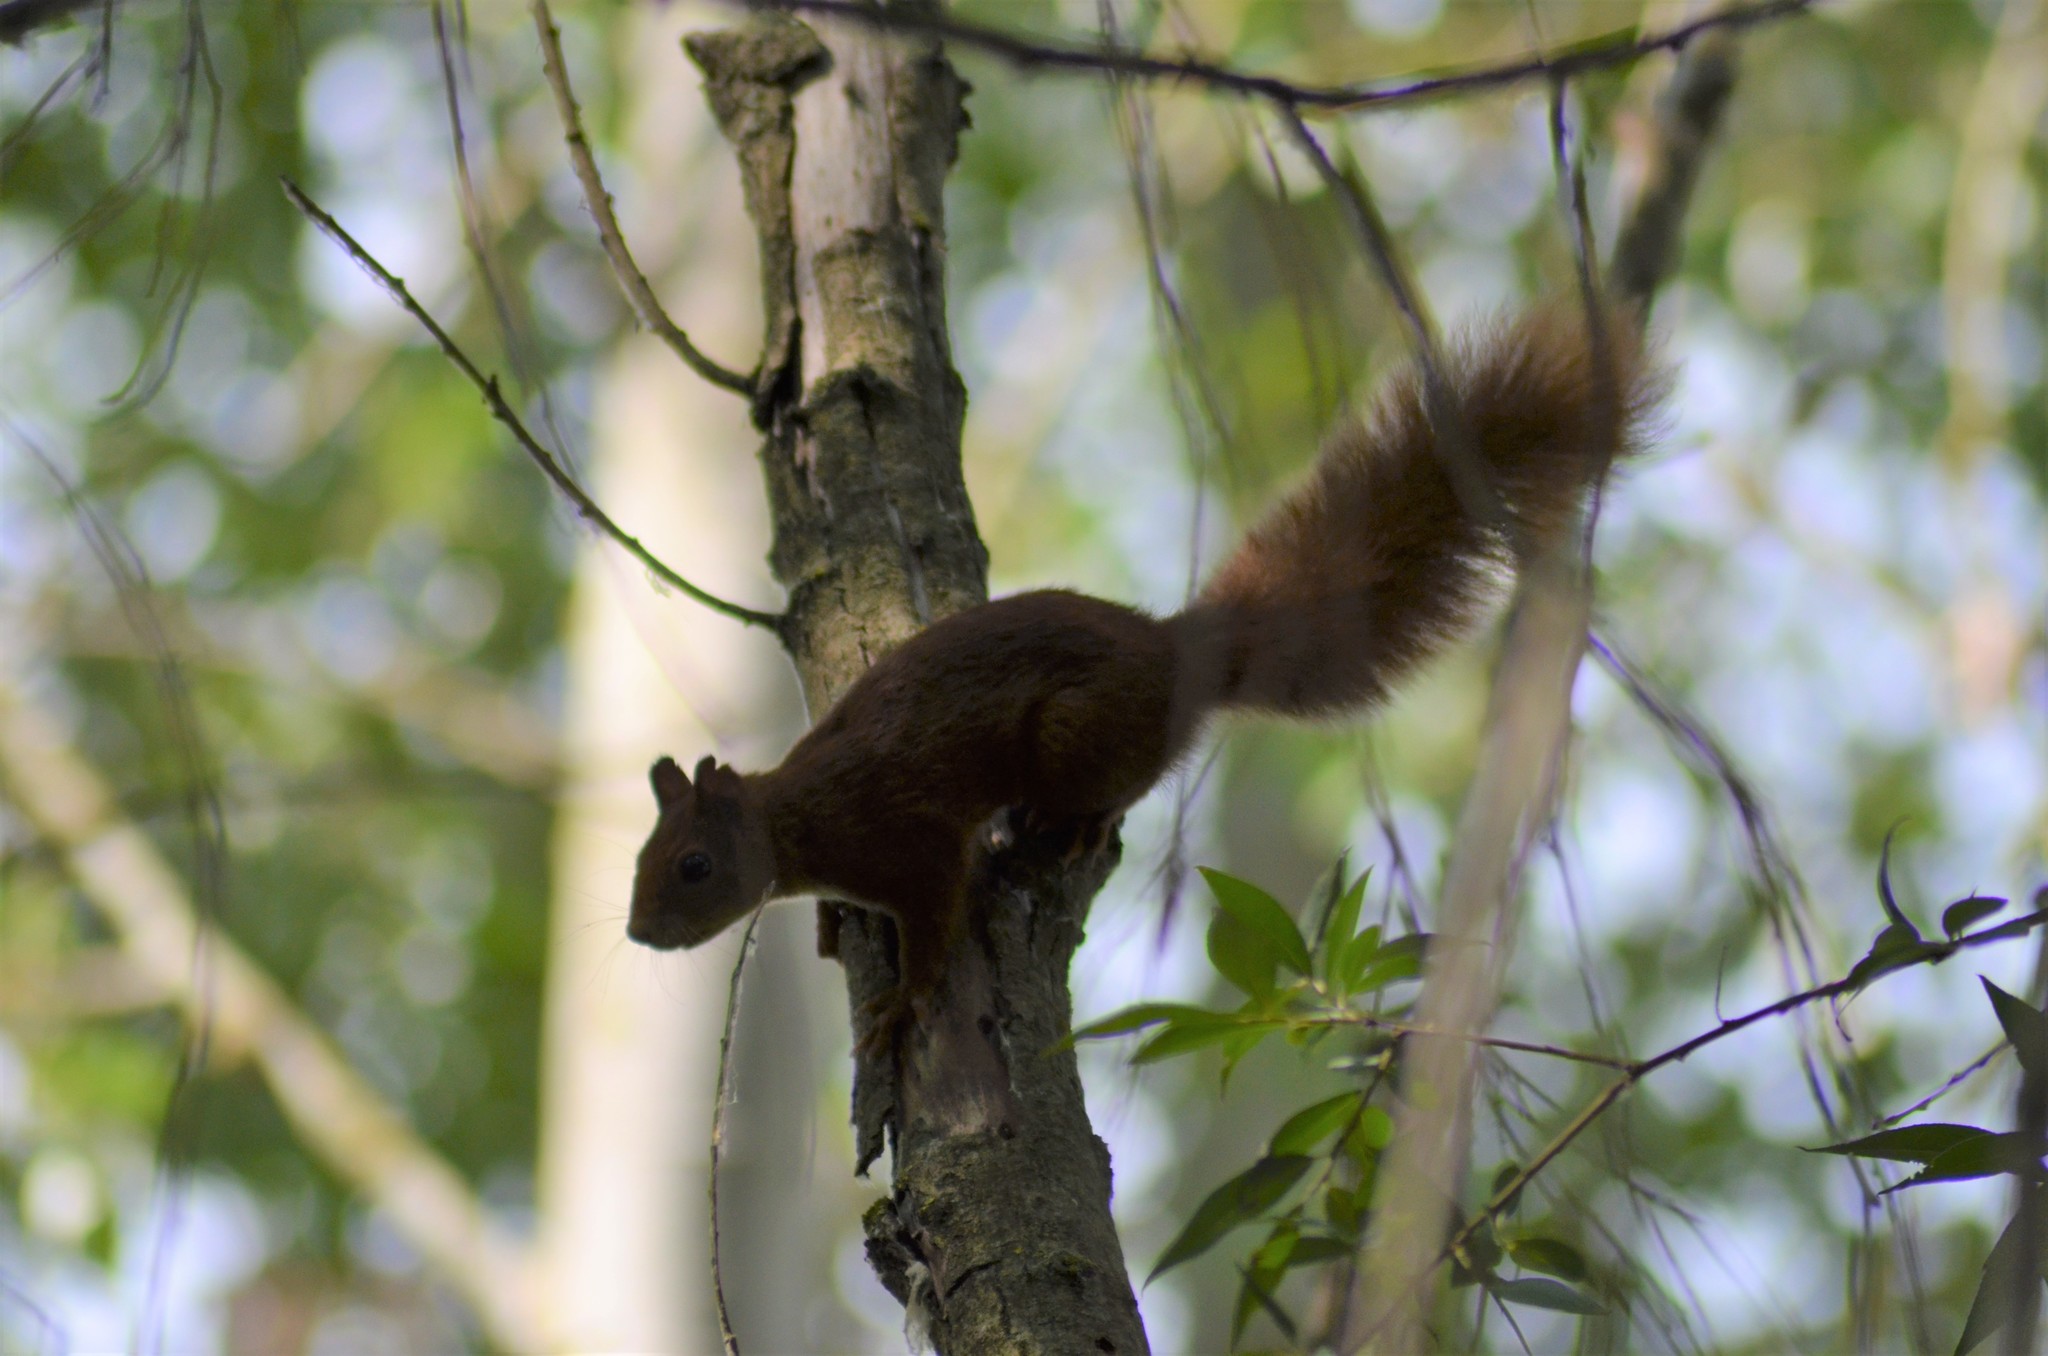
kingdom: Animalia
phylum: Chordata
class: Mammalia
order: Rodentia
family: Sciuridae
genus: Sciurus
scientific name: Sciurus vulgaris
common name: Eurasian red squirrel
